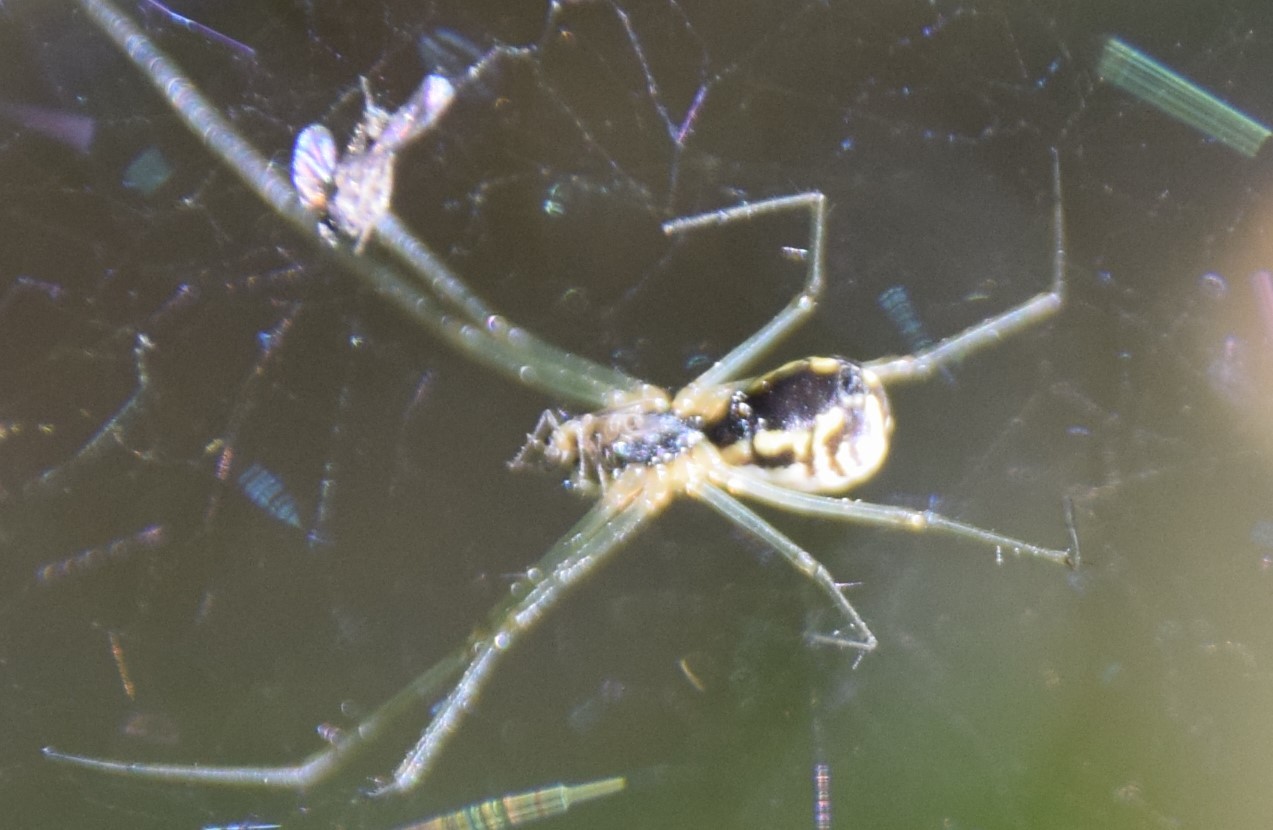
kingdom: Animalia
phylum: Arthropoda
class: Arachnida
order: Araneae
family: Linyphiidae
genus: Neriene
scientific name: Neriene radiata
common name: Filmy dome spider
